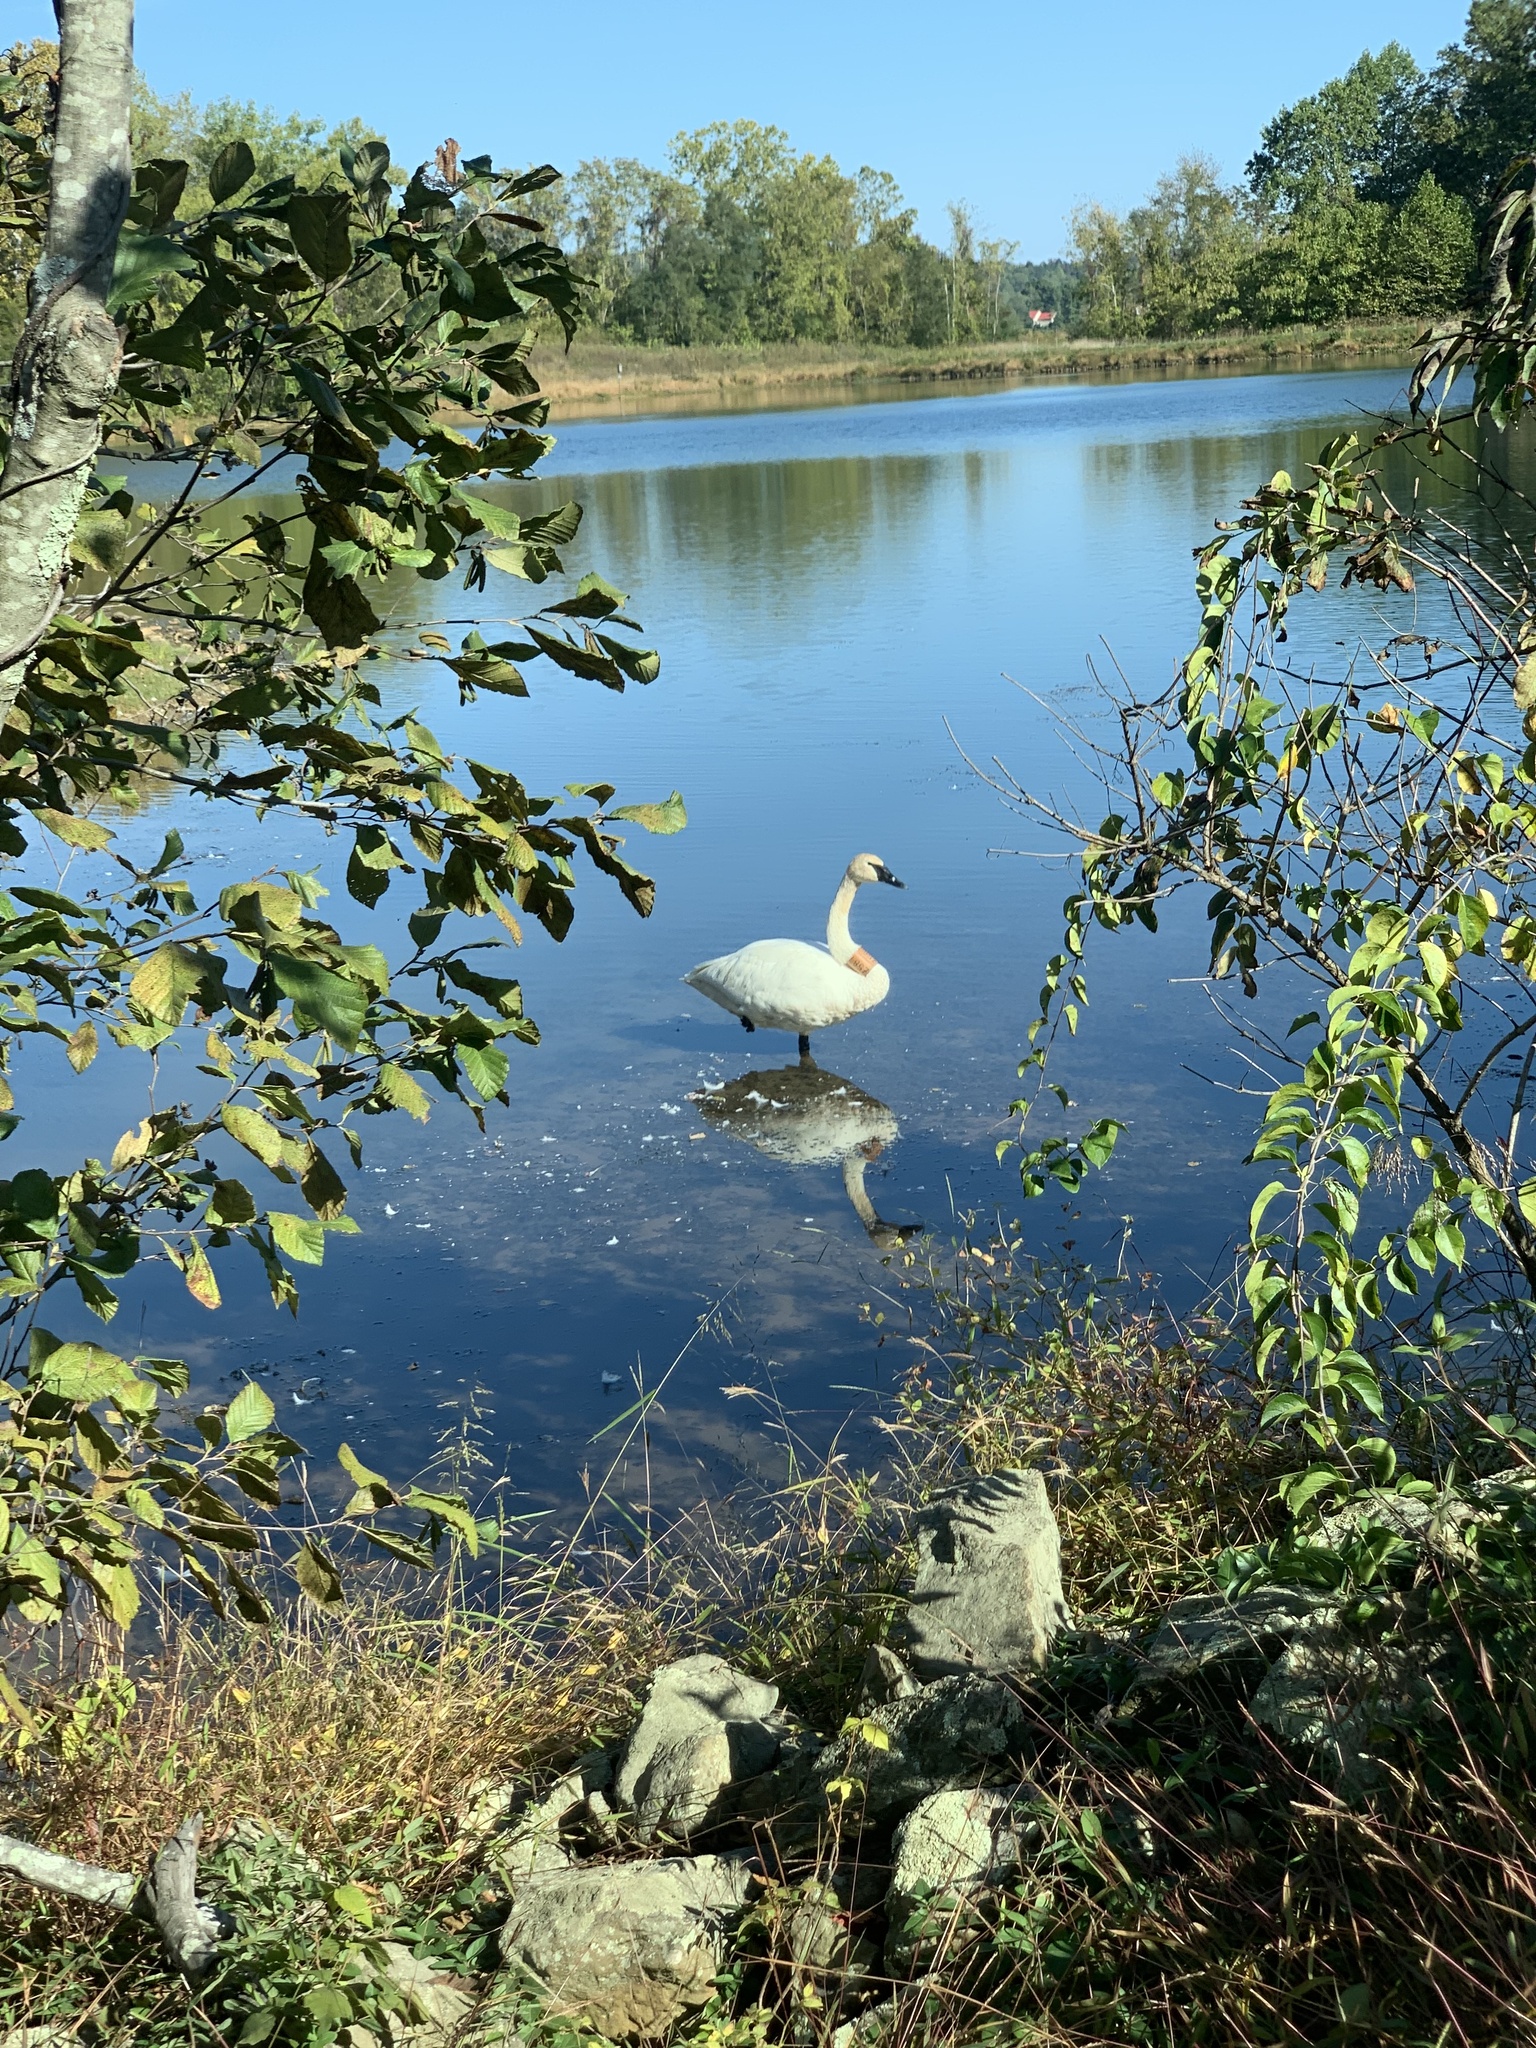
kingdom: Animalia
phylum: Chordata
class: Aves
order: Anseriformes
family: Anatidae
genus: Cygnus
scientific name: Cygnus buccinator
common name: Trumpeter swan
